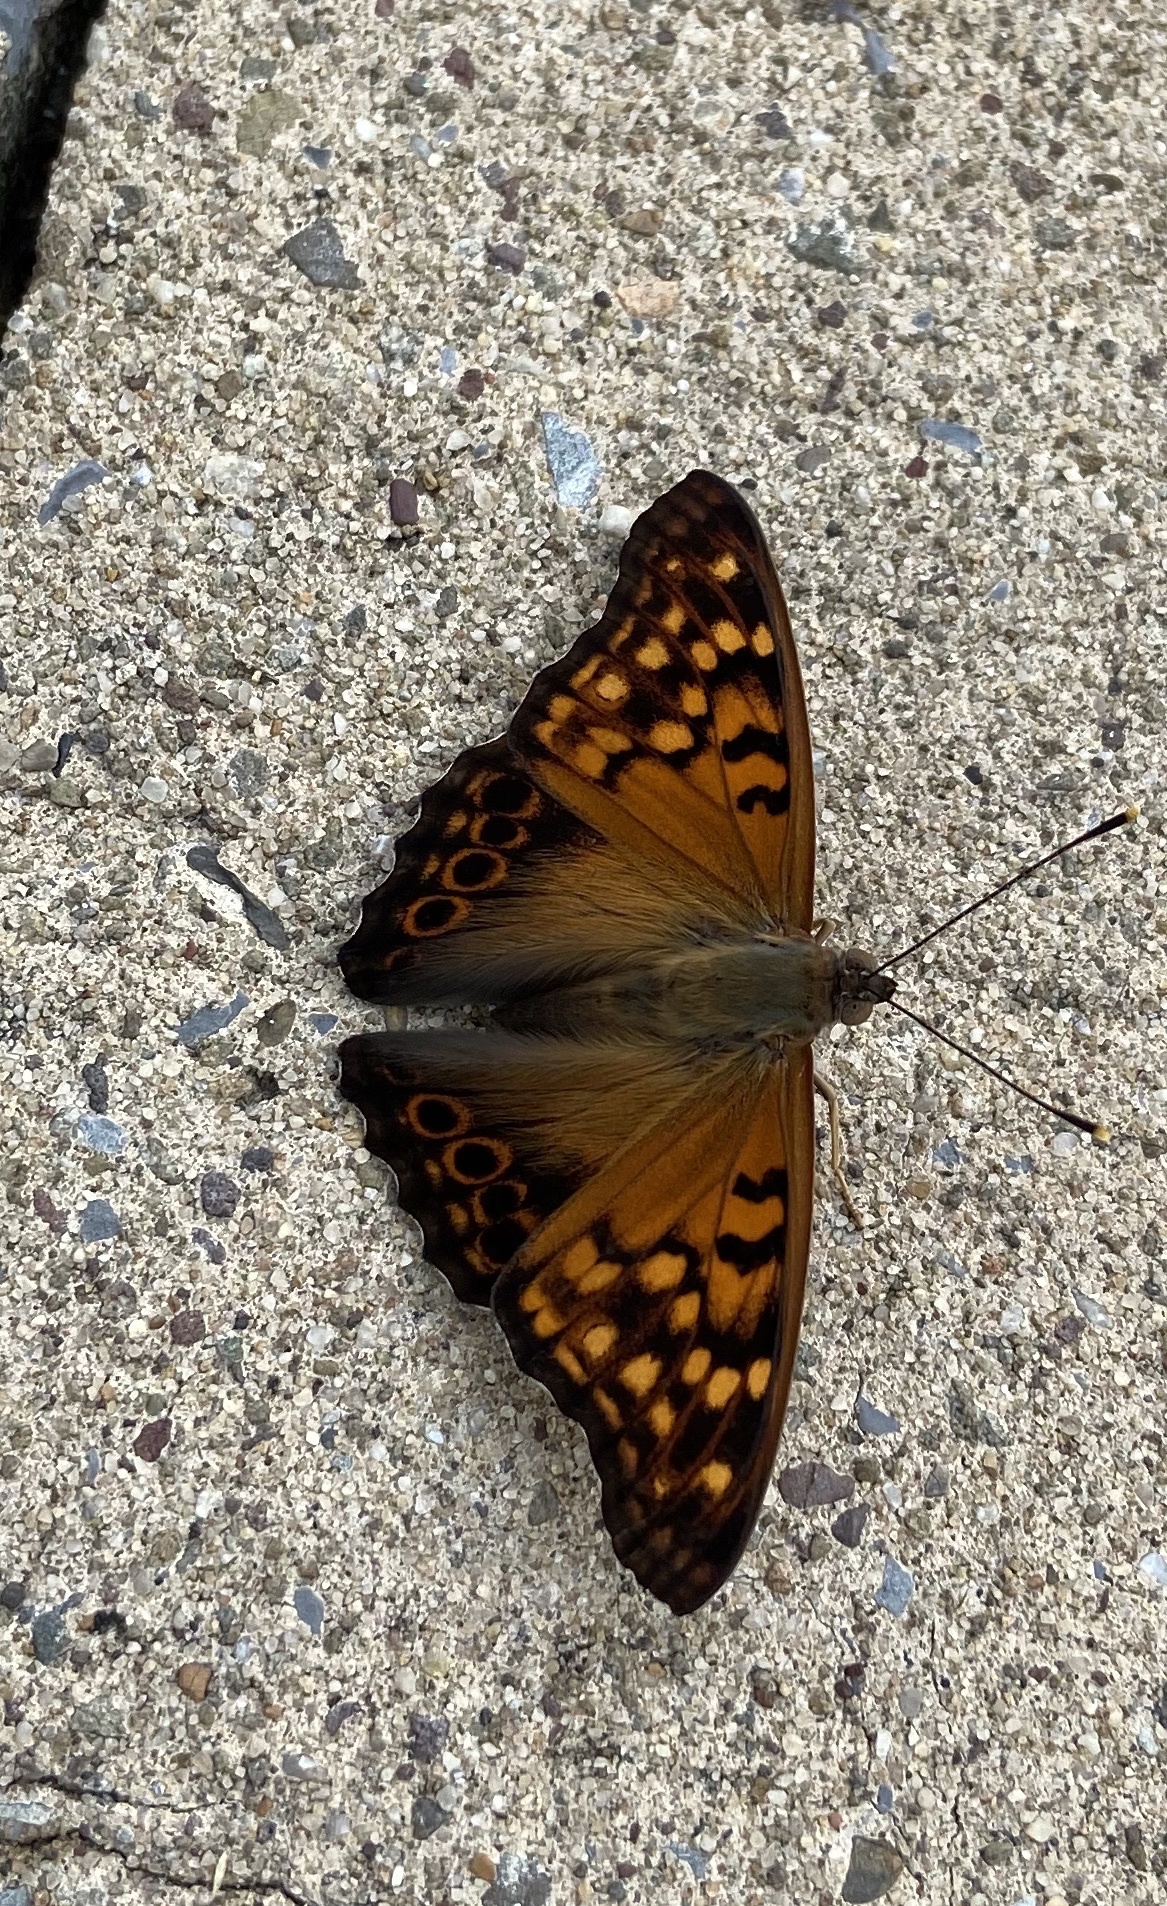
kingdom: Animalia
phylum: Arthropoda
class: Insecta
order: Lepidoptera
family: Nymphalidae
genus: Asterocampa
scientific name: Asterocampa clyton
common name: Tawny emperor
